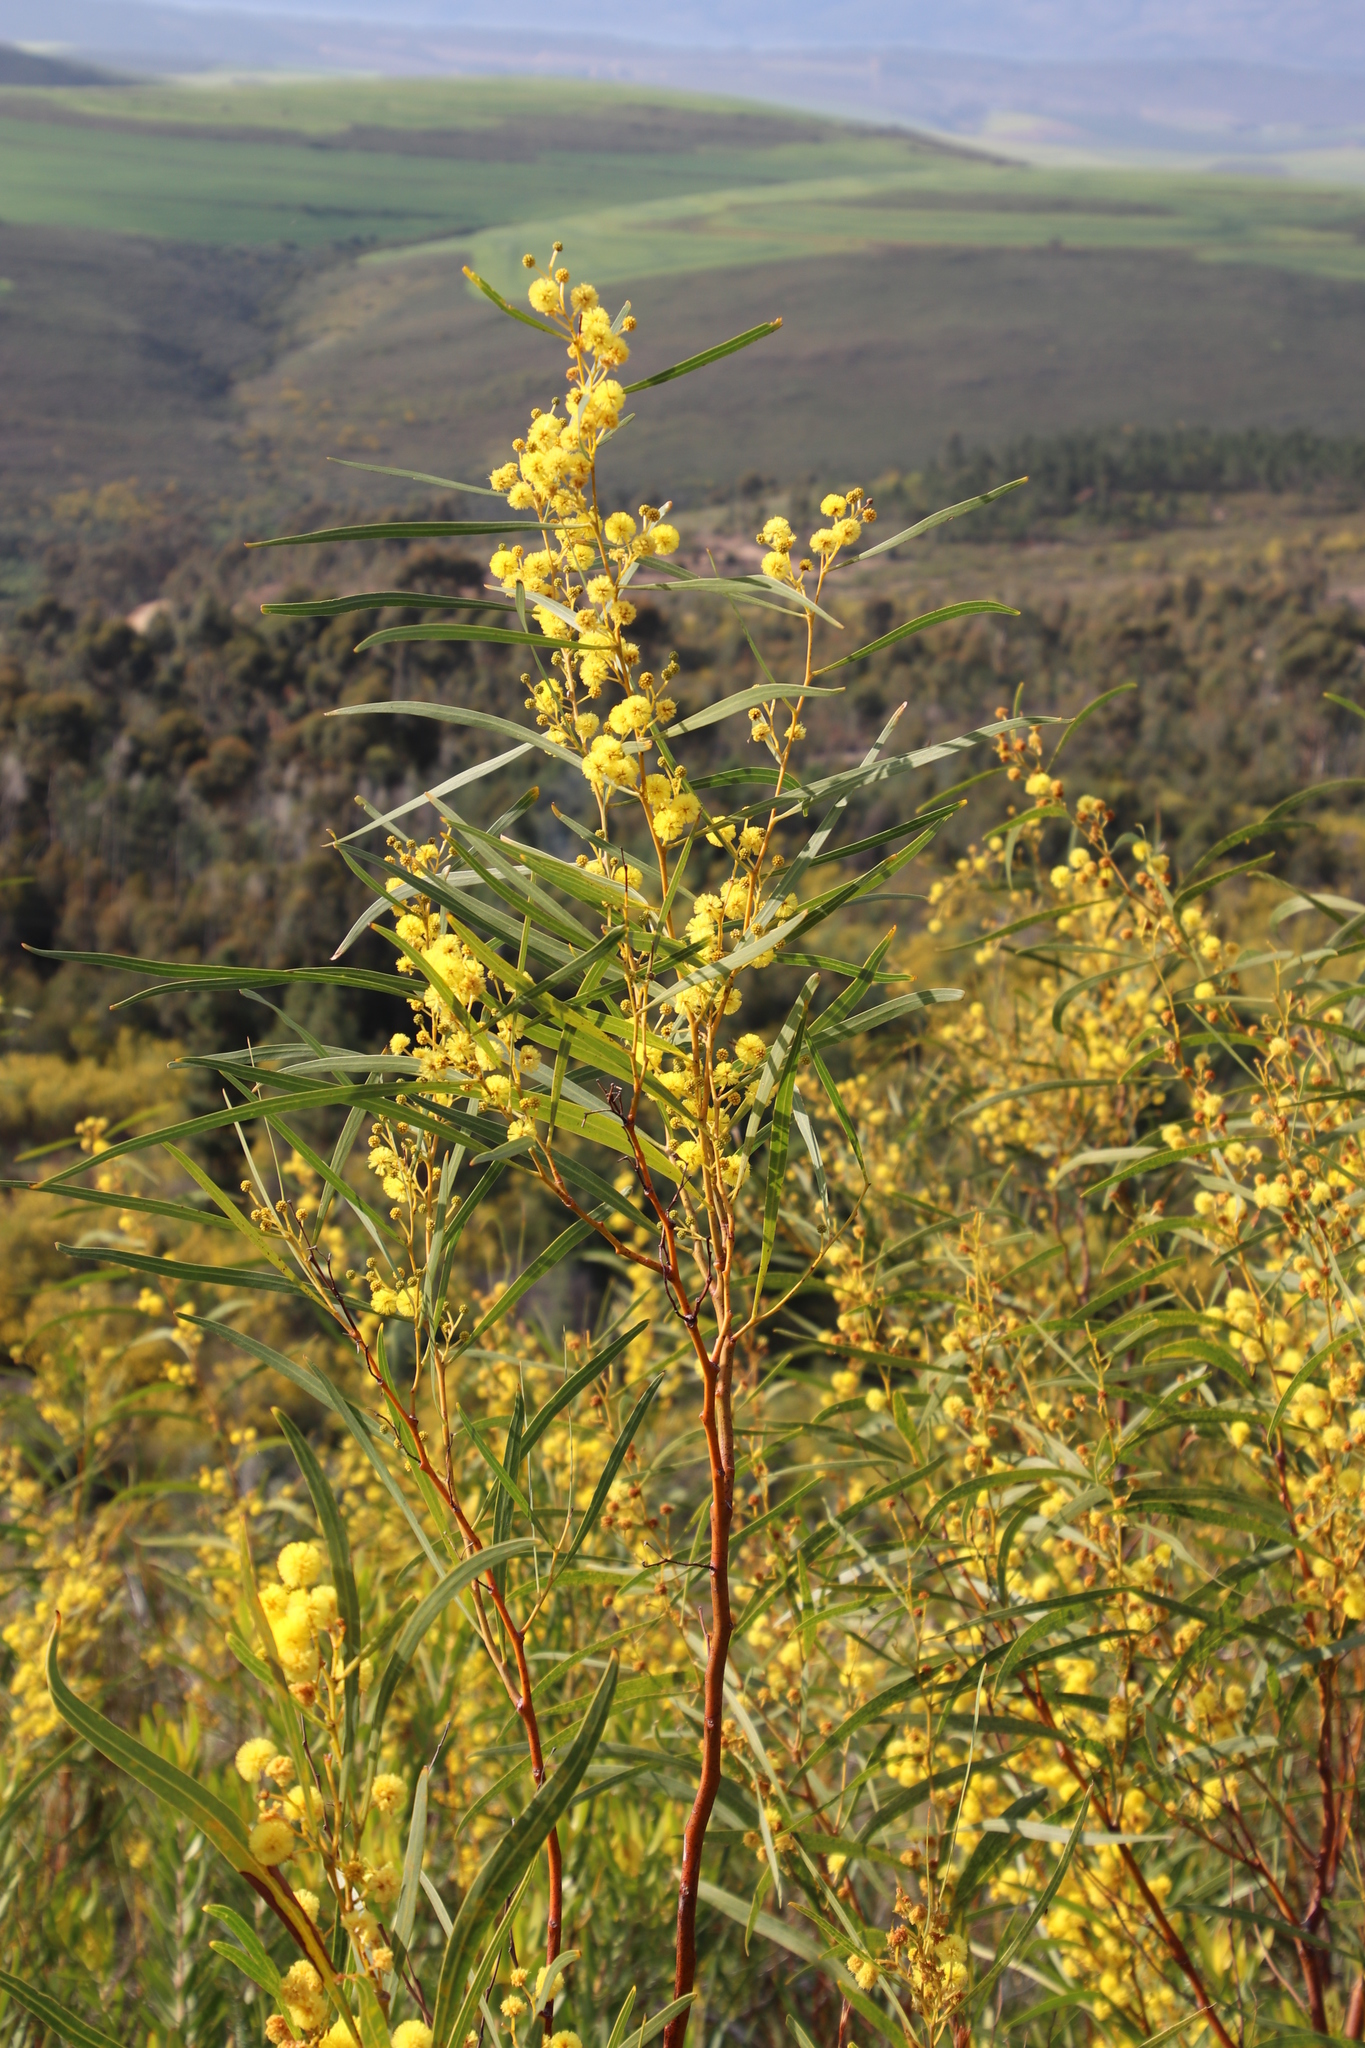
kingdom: Plantae
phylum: Tracheophyta
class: Magnoliopsida
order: Fabales
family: Fabaceae
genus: Acacia
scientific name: Acacia saligna
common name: Orange wattle
